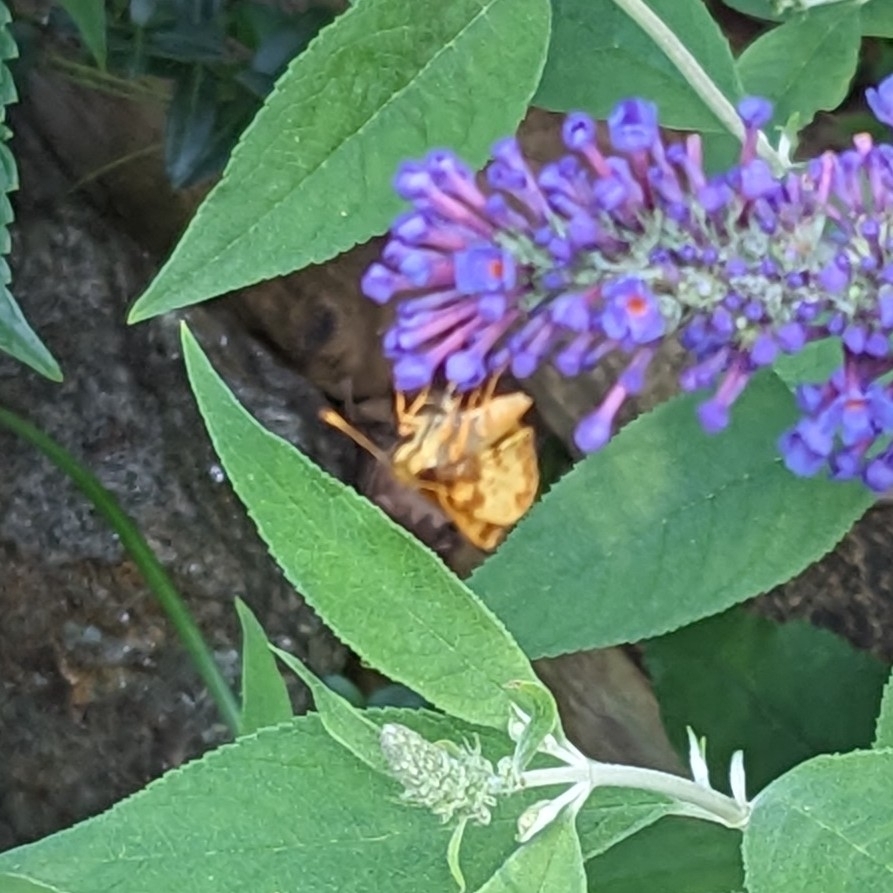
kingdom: Animalia
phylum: Arthropoda
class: Insecta
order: Lepidoptera
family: Hesperiidae
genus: Lon
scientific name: Lon zabulon
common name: Zabulon skipper
